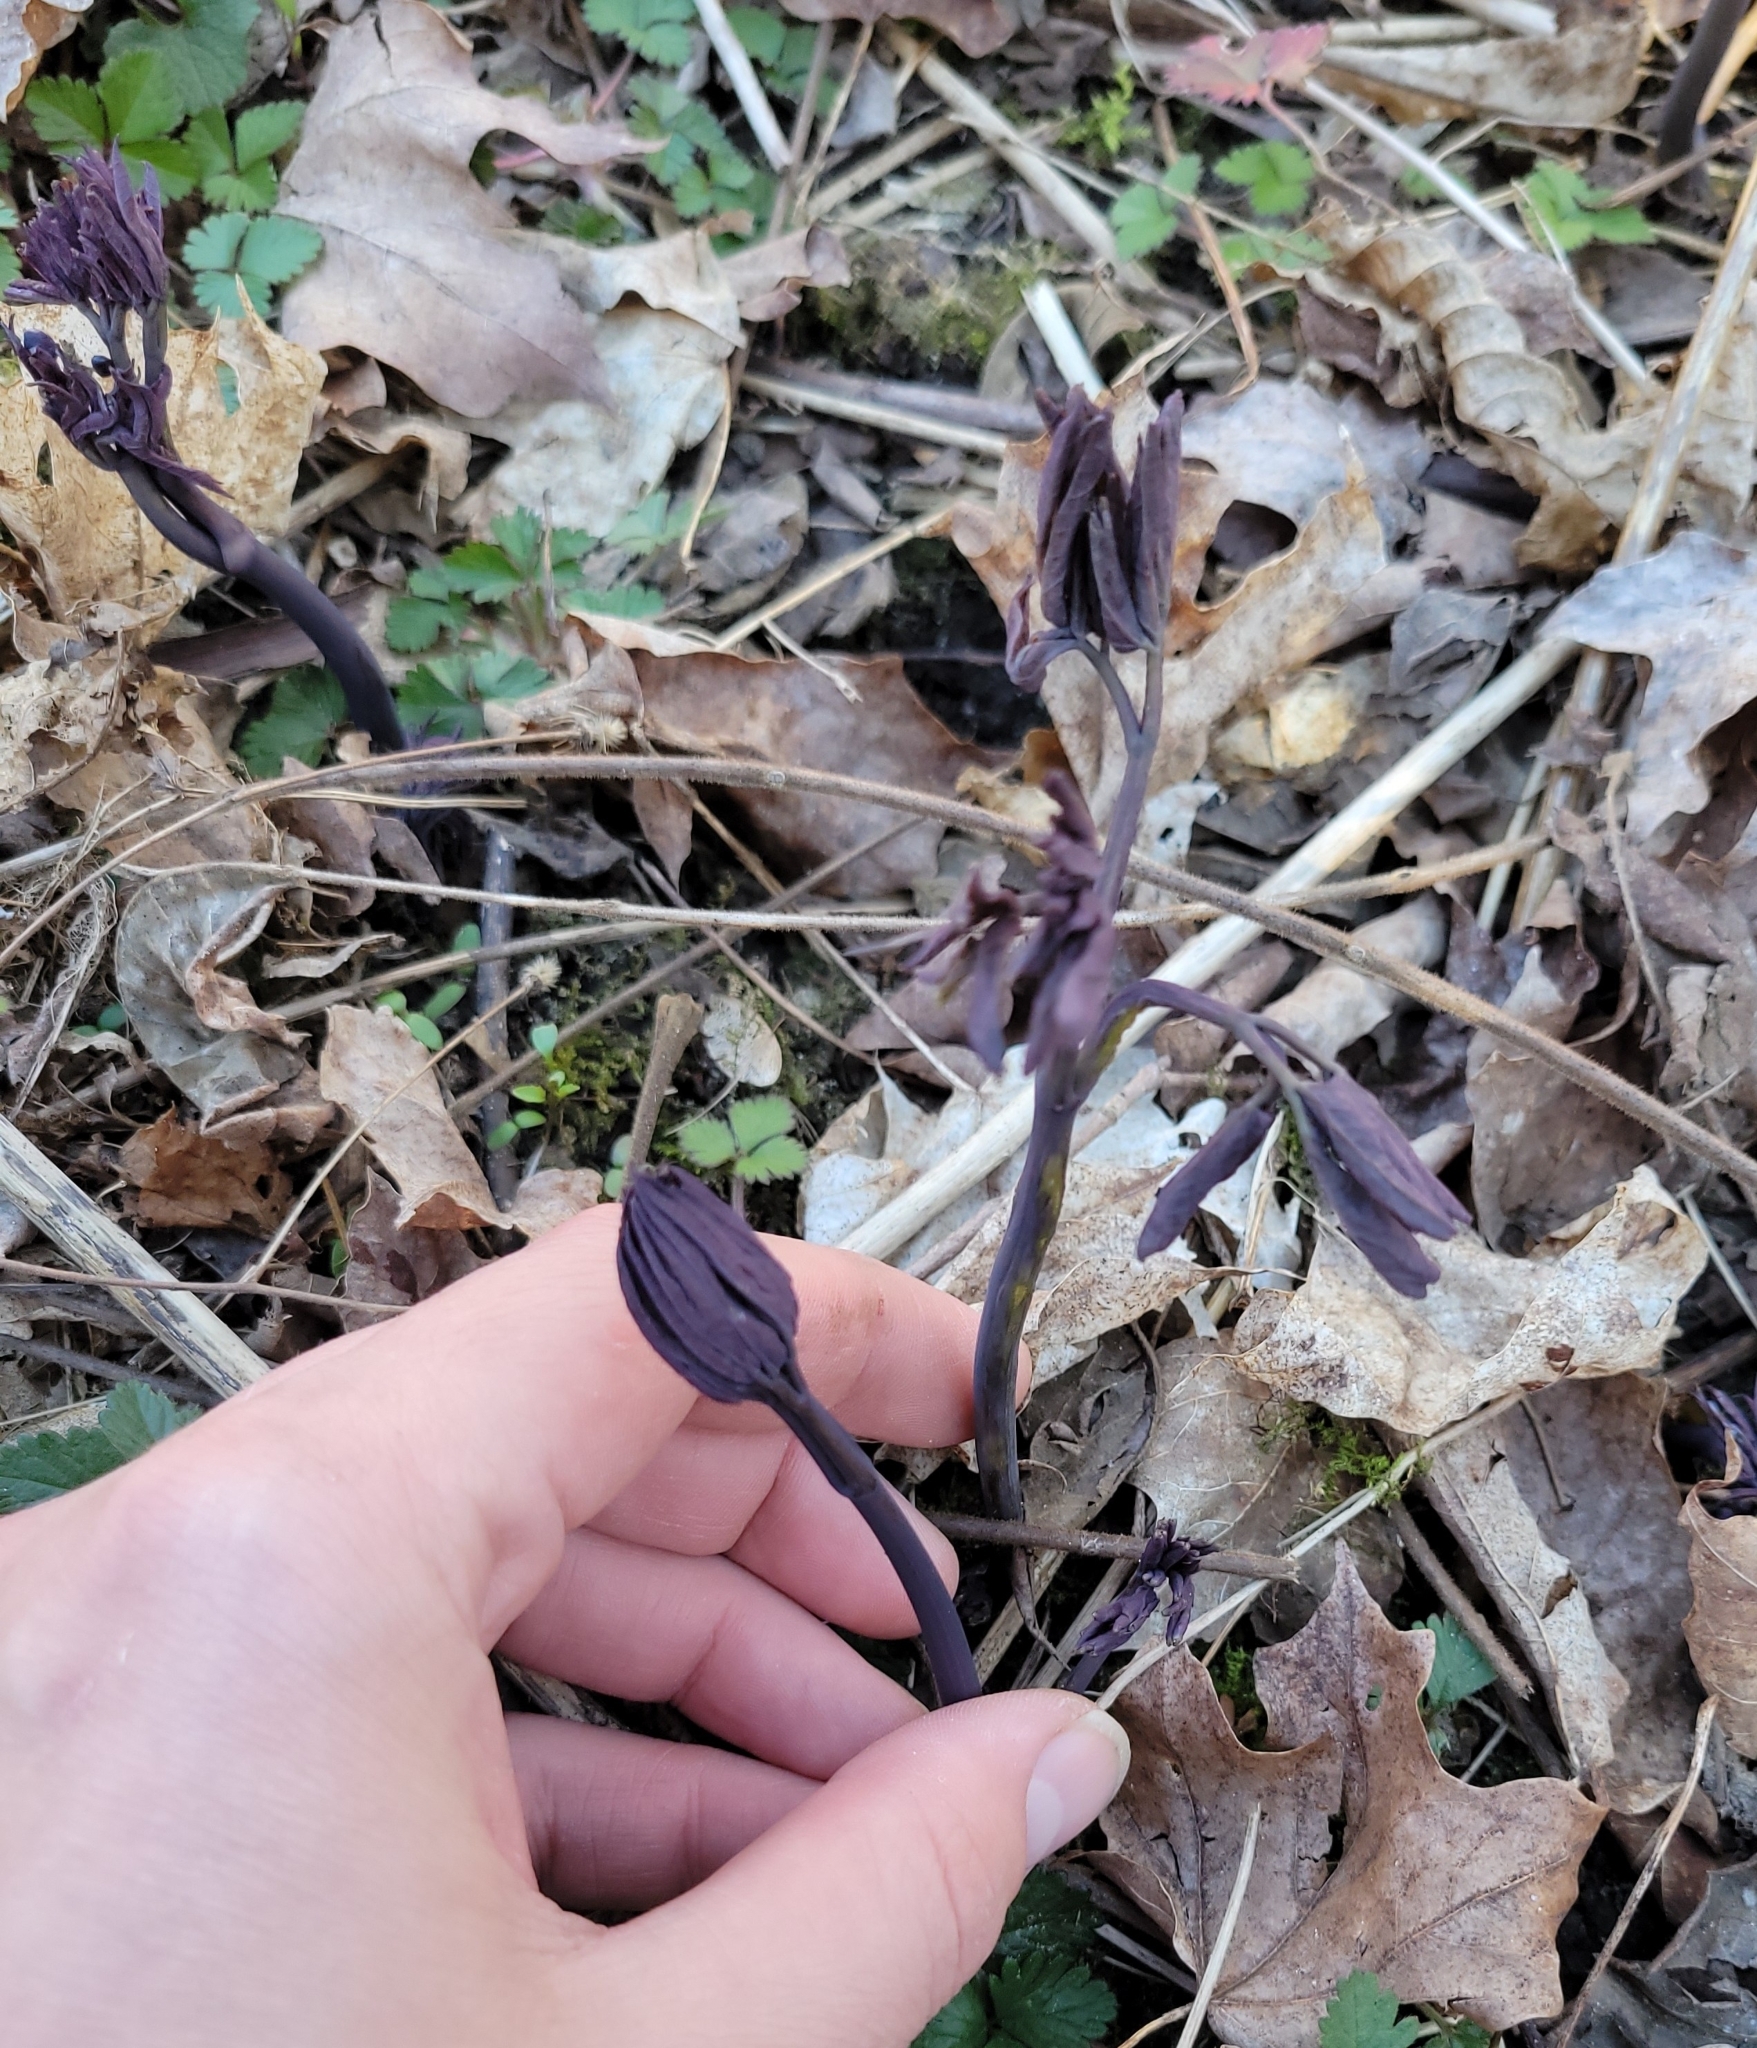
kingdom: Plantae
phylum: Tracheophyta
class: Magnoliopsida
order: Ranunculales
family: Berberidaceae
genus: Caulophyllum
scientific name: Caulophyllum giganteum
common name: Blue cohosh
